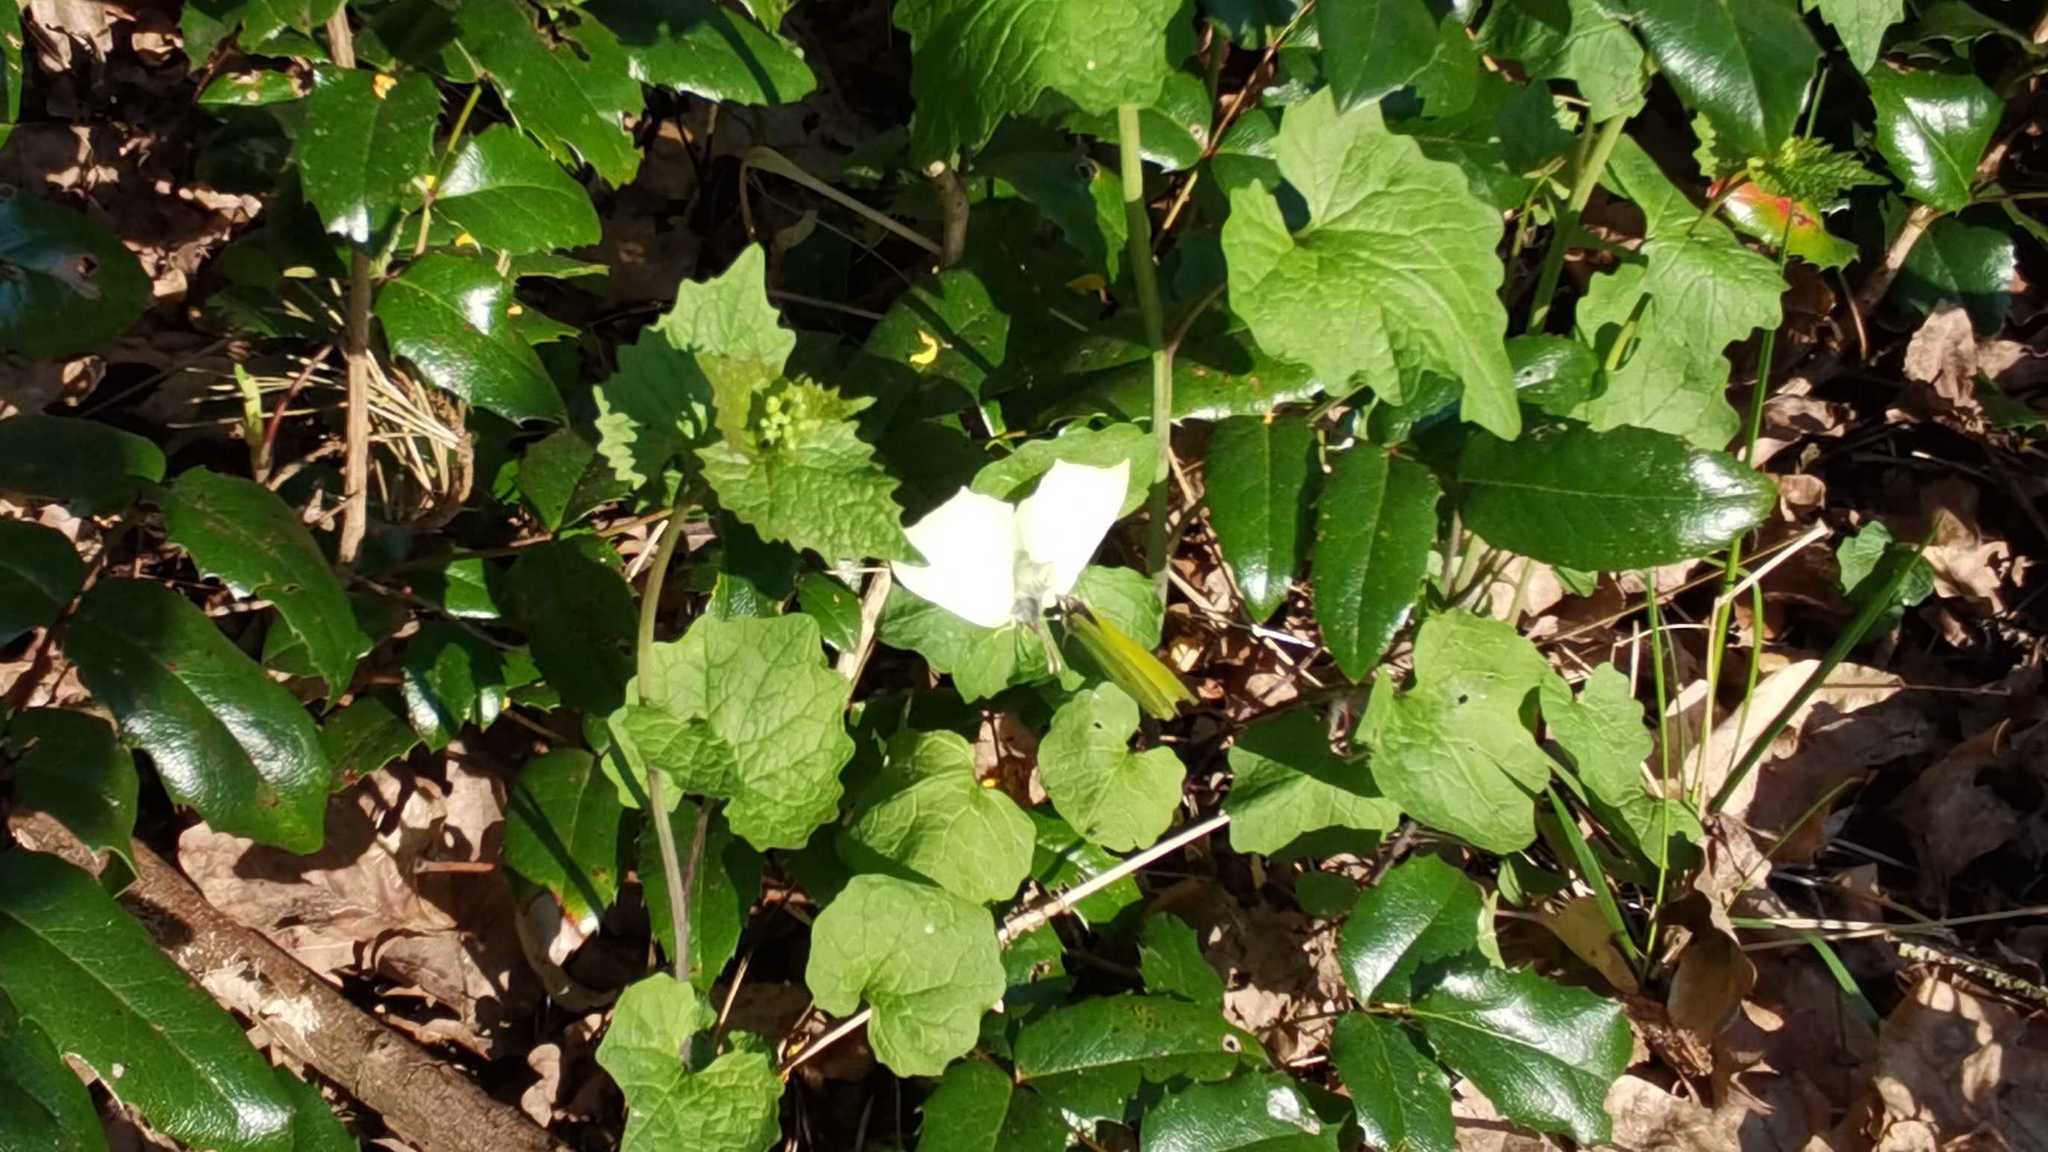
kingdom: Animalia
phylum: Arthropoda
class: Insecta
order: Lepidoptera
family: Pieridae
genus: Gonepteryx
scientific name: Gonepteryx rhamni
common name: Brimstone
